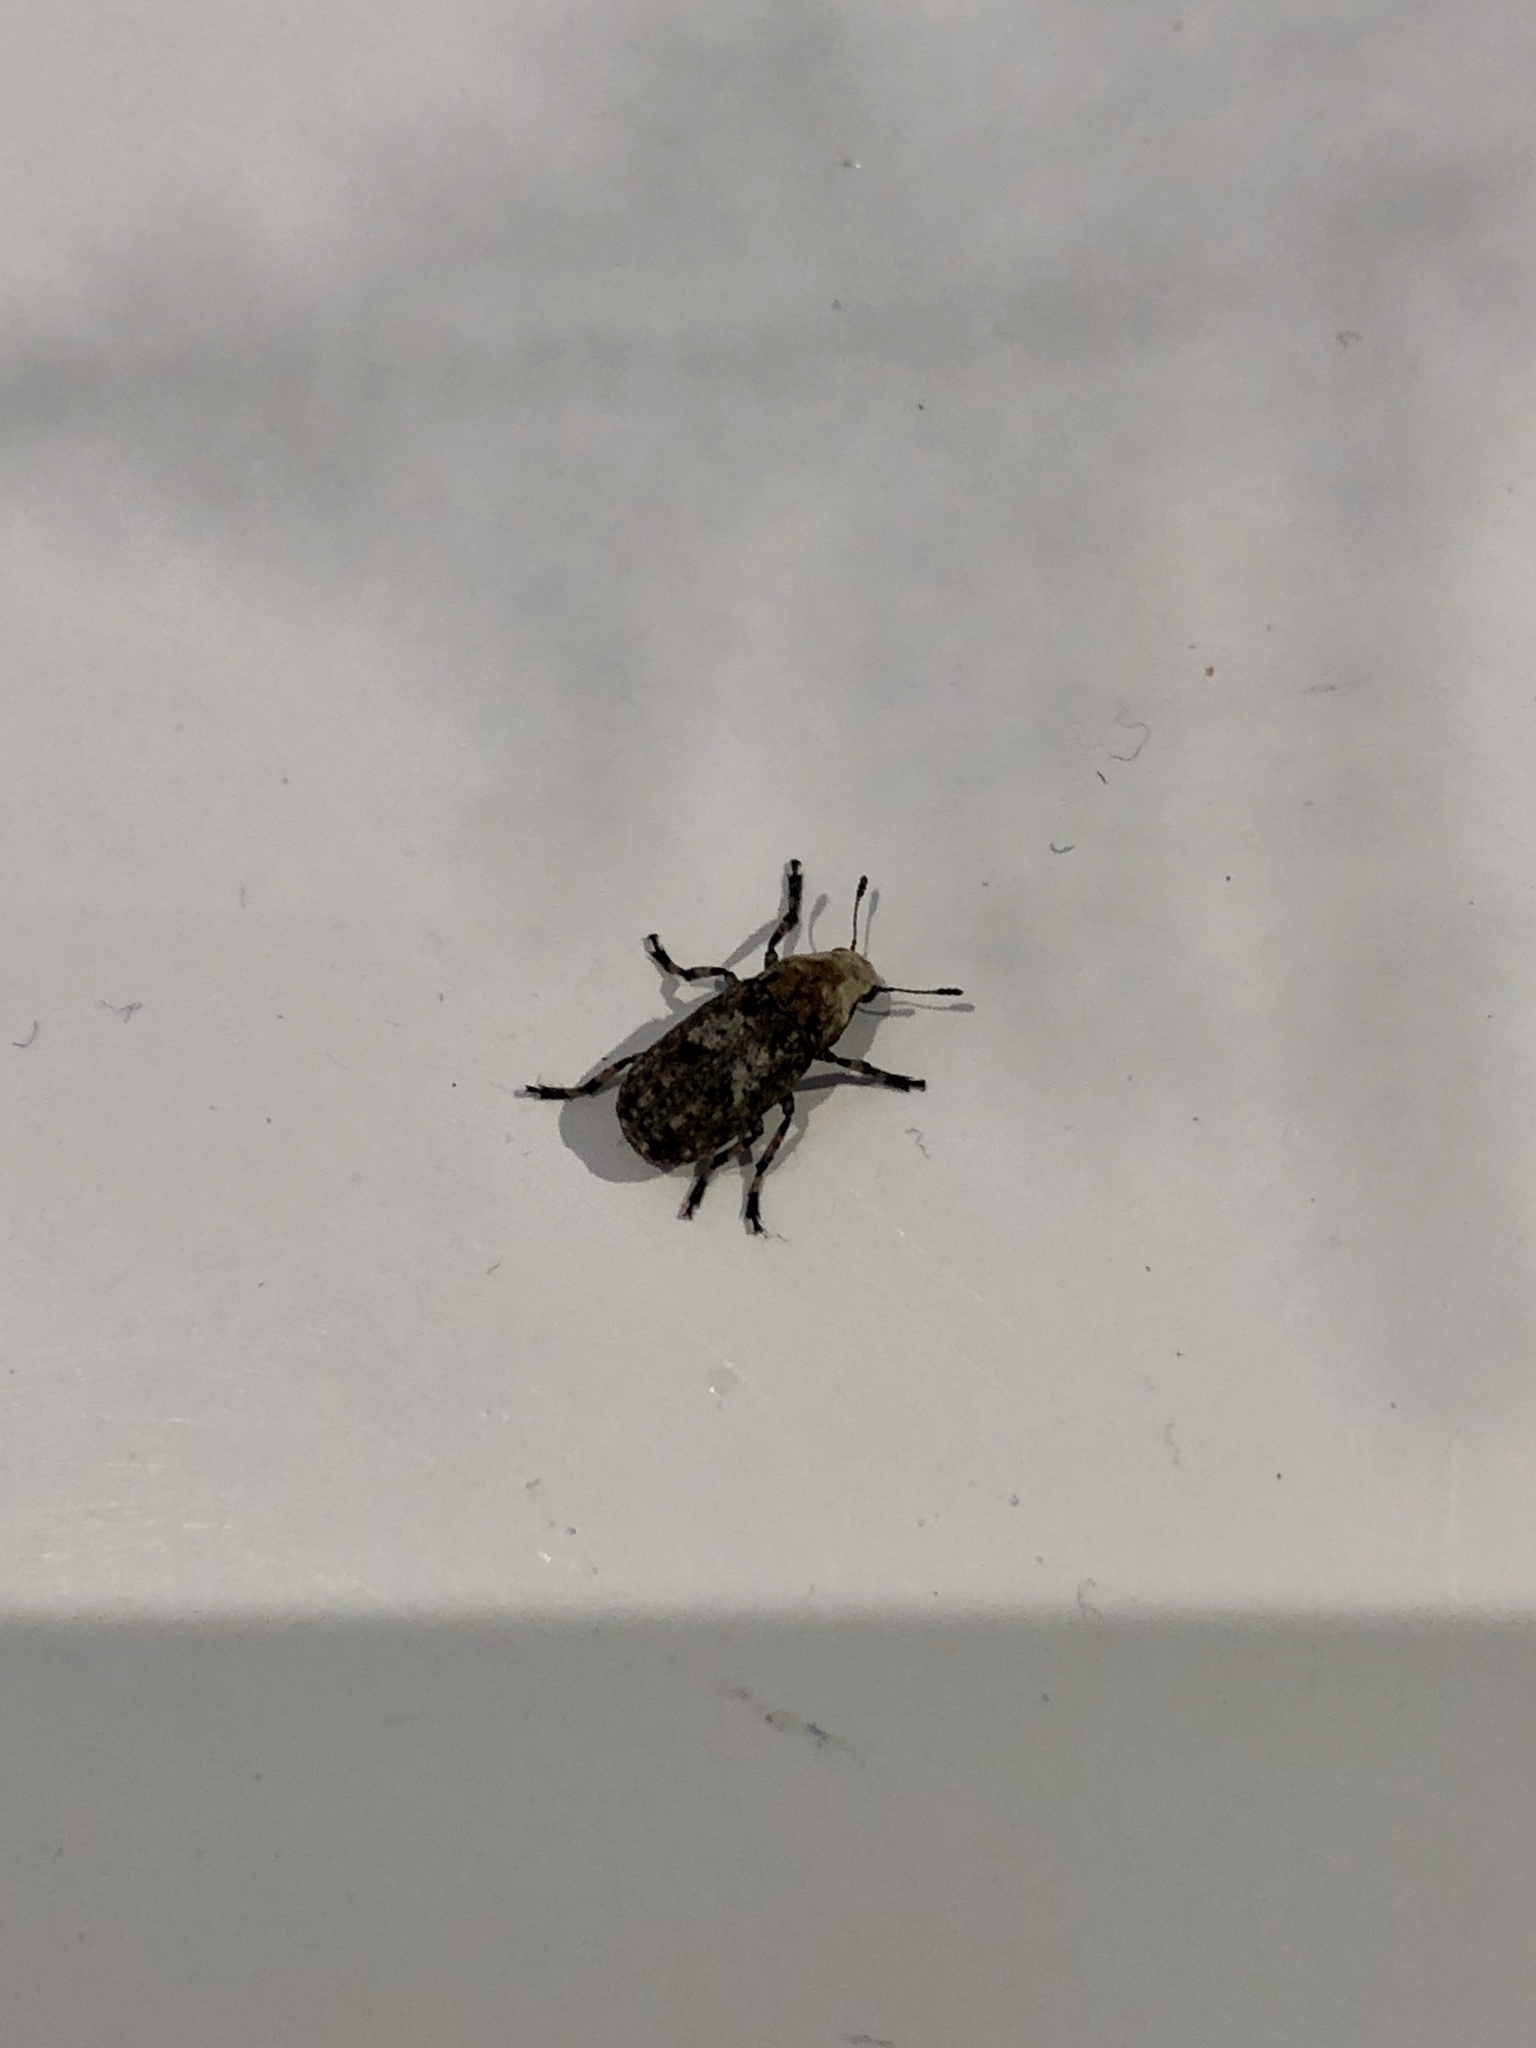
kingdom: Animalia
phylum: Arthropoda
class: Insecta
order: Coleoptera
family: Anthribidae
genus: Euparius
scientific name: Euparius marmoreus
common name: Marbled fungus weevil
